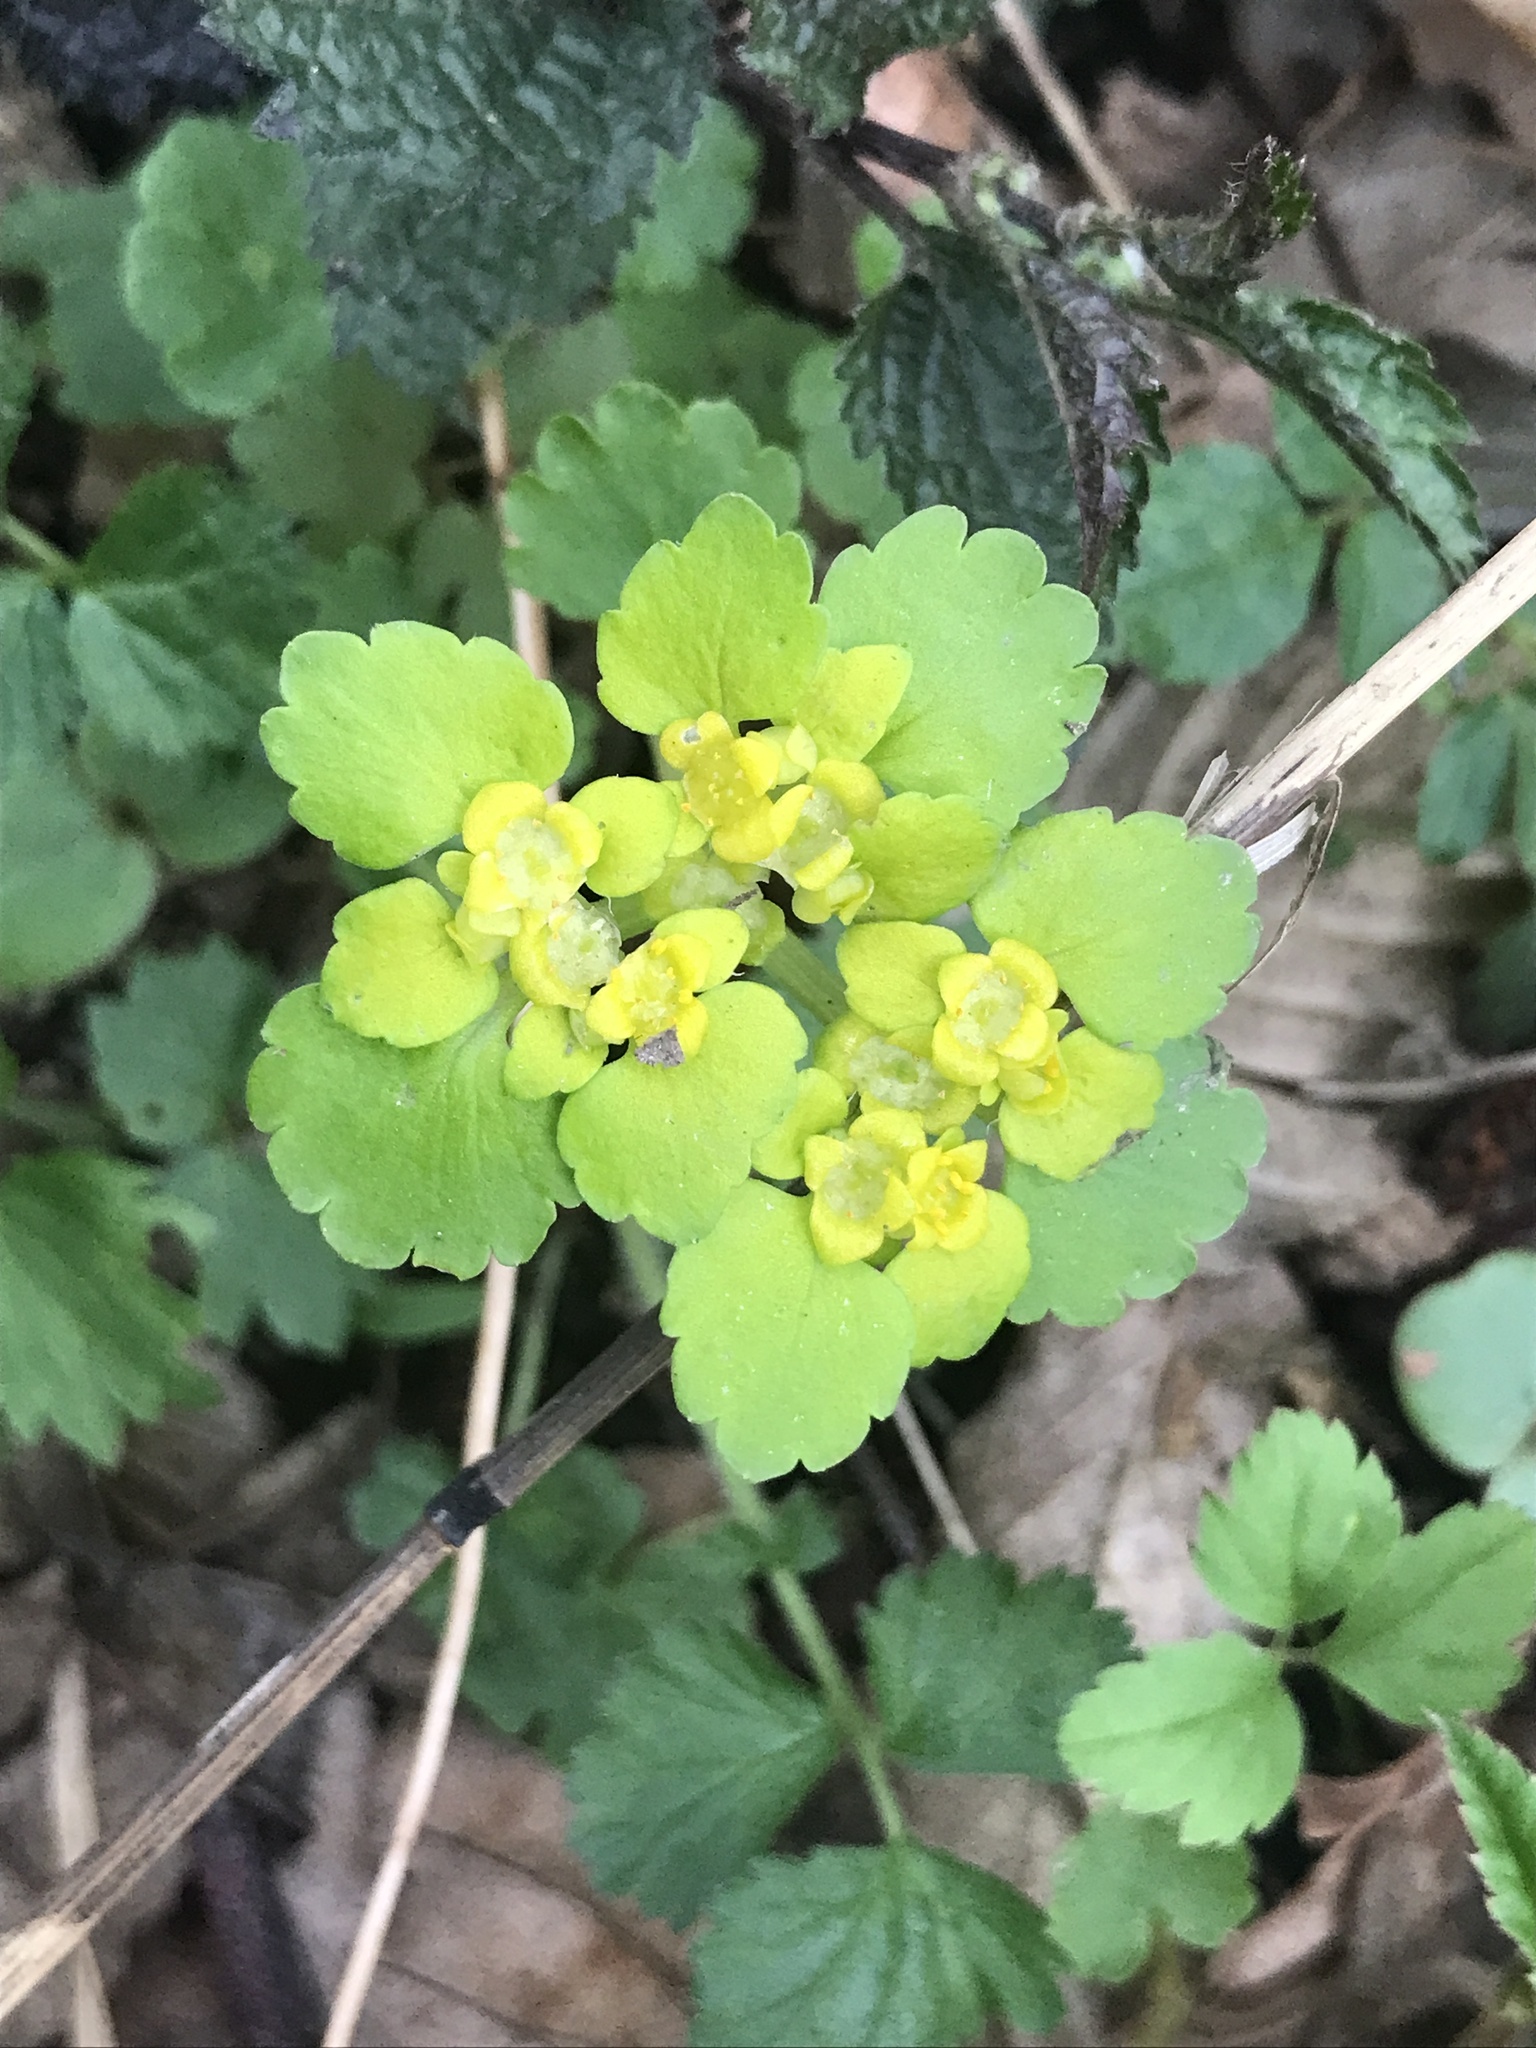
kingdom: Plantae
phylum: Tracheophyta
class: Magnoliopsida
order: Saxifragales
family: Saxifragaceae
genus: Chrysosplenium
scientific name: Chrysosplenium alternifolium
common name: Alternate-leaved golden-saxifrage
